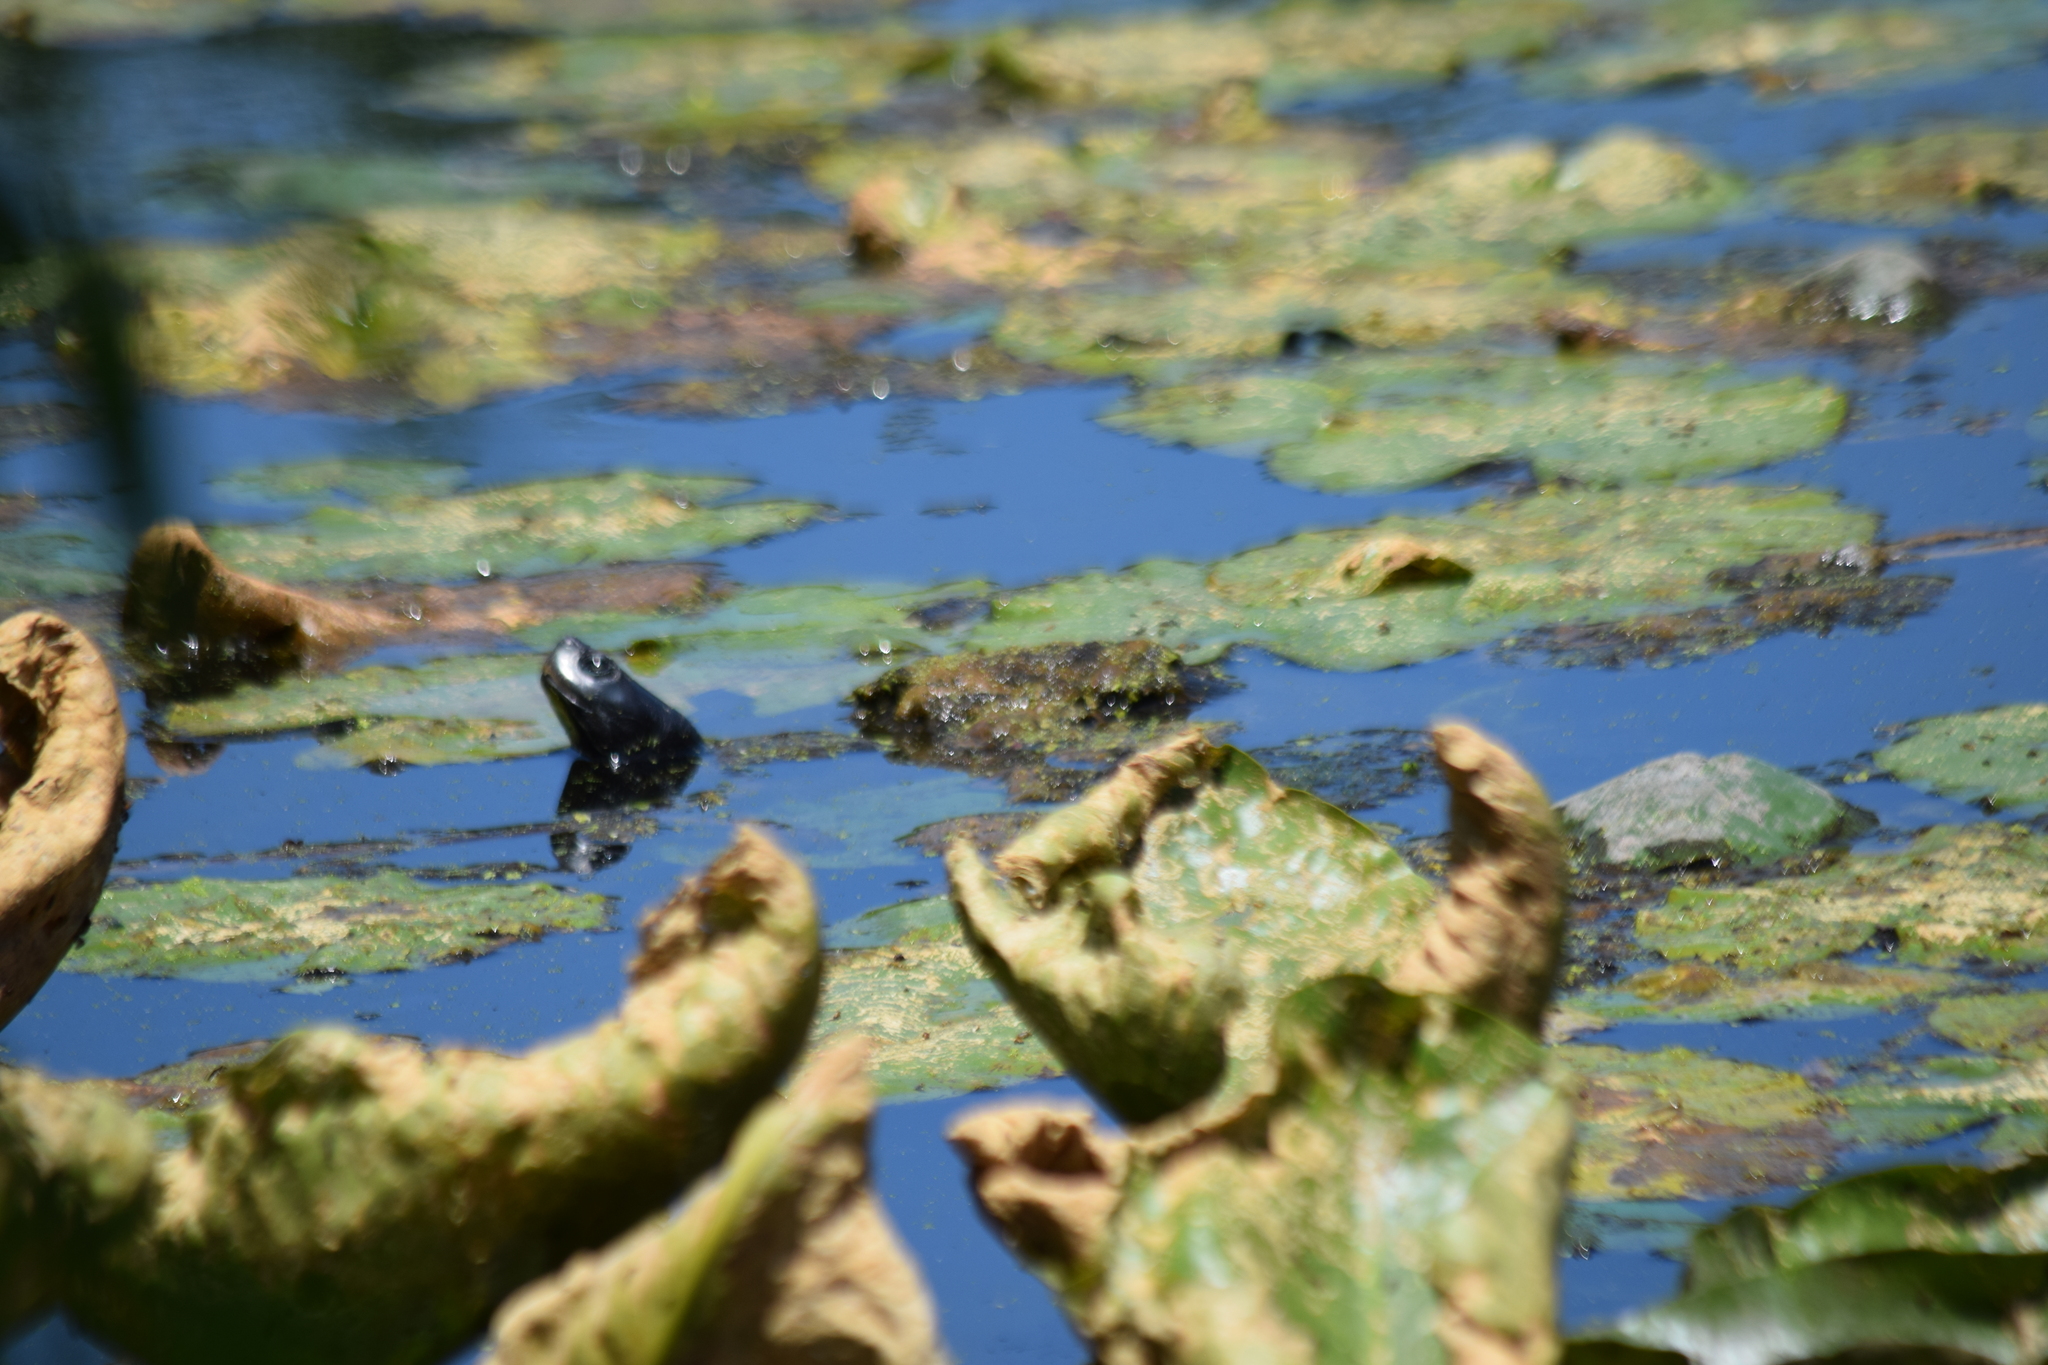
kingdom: Animalia
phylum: Chordata
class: Testudines
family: Emydidae
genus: Pseudemys
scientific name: Pseudemys rubriventris
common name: American red-bellied turtle
